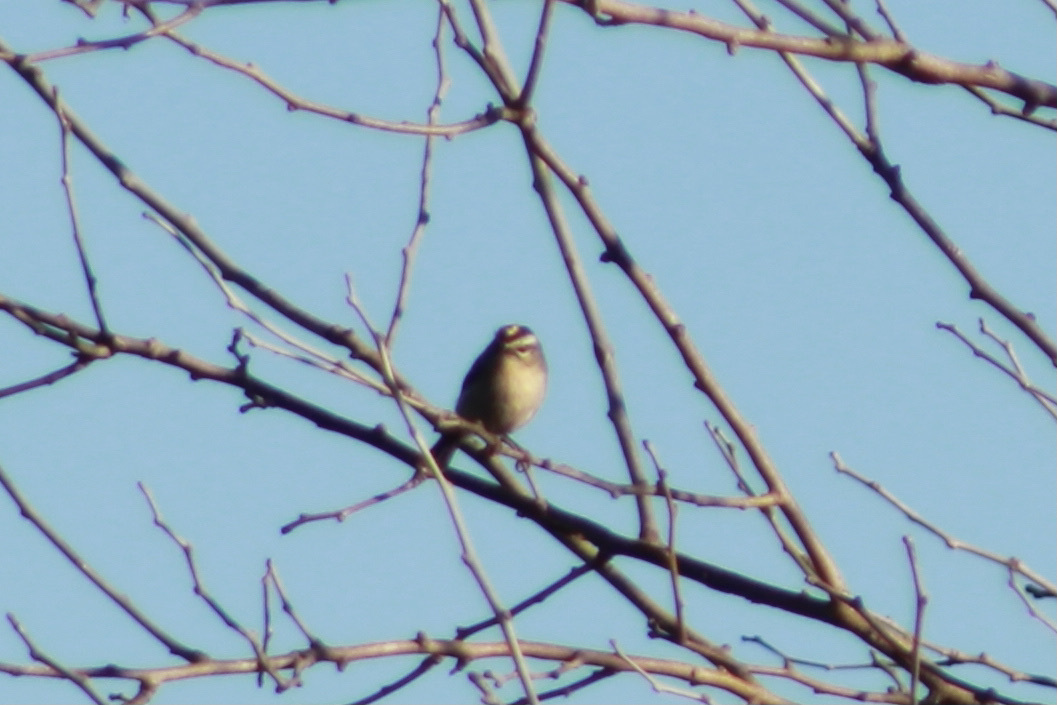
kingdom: Animalia
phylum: Chordata
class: Aves
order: Passeriformes
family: Regulidae
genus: Regulus
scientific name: Regulus satrapa
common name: Golden-crowned kinglet
